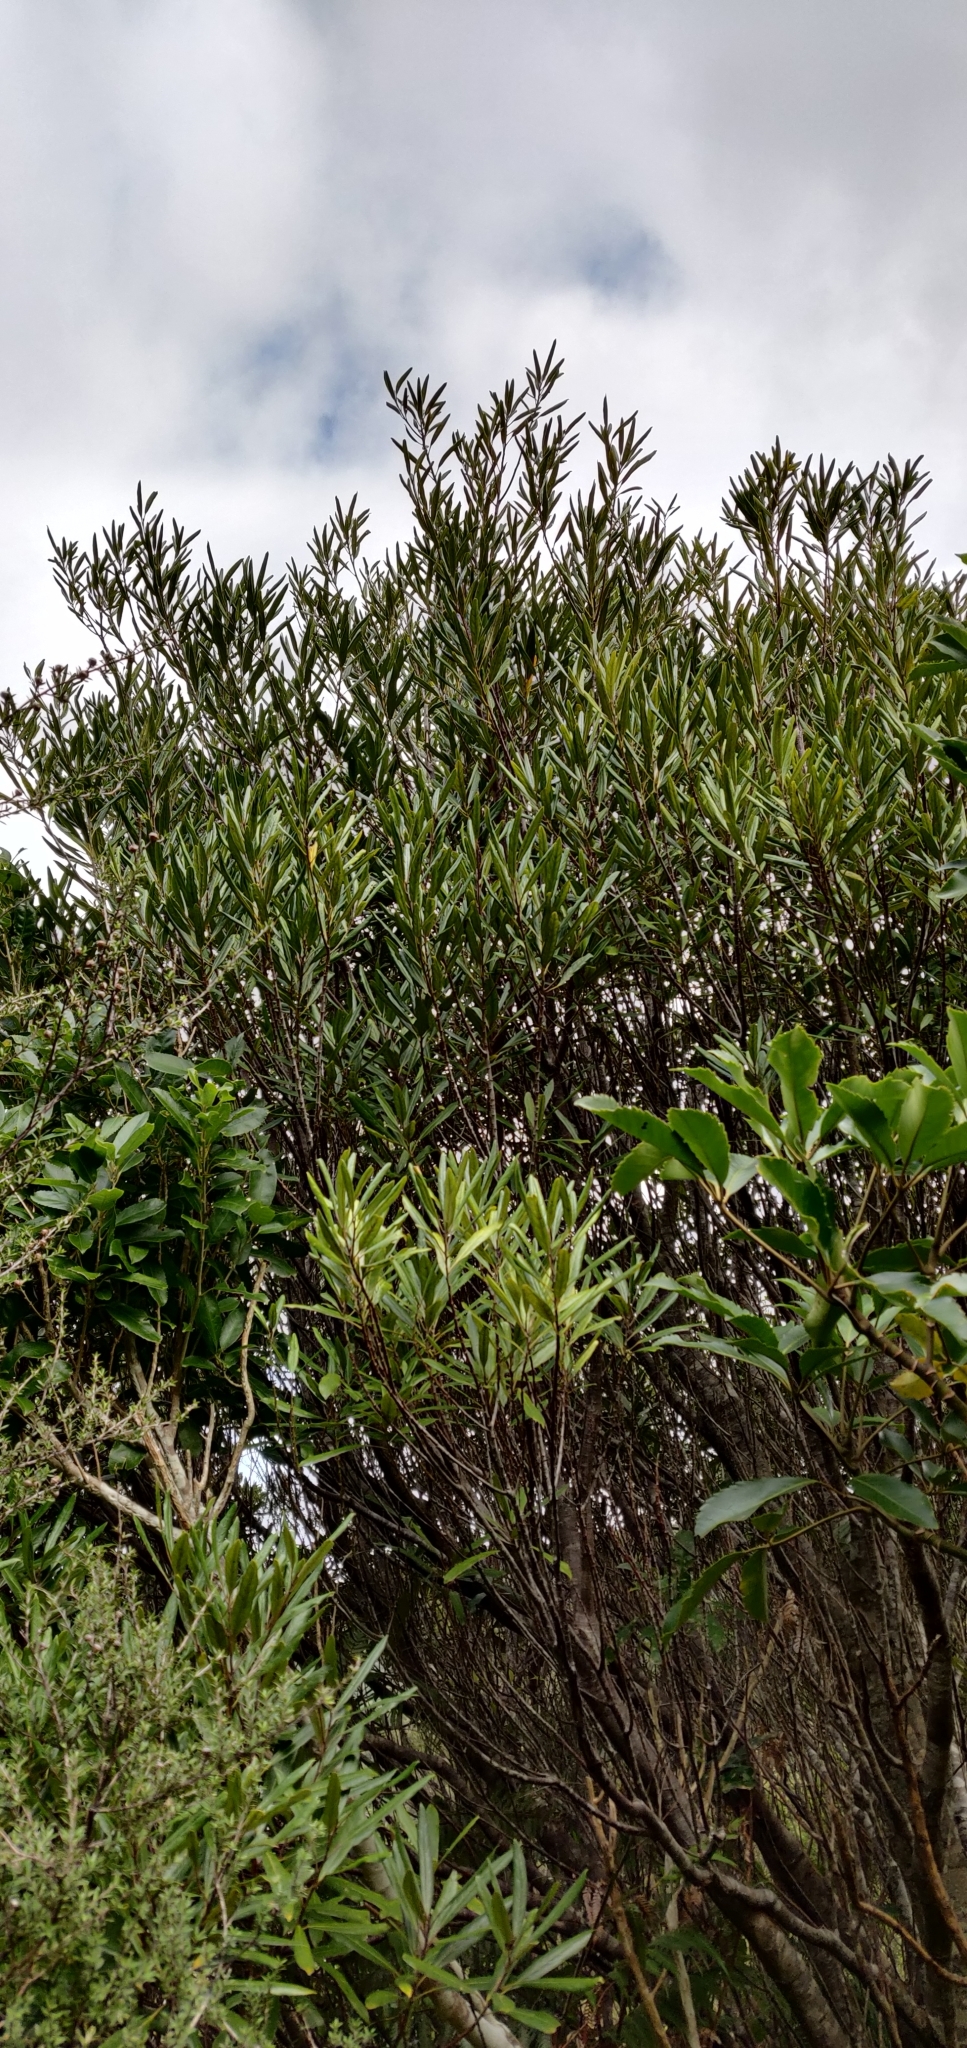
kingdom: Plantae
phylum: Tracheophyta
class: Magnoliopsida
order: Oxalidales
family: Elaeocarpaceae
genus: Elaeocarpus
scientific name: Elaeocarpus dentatus
